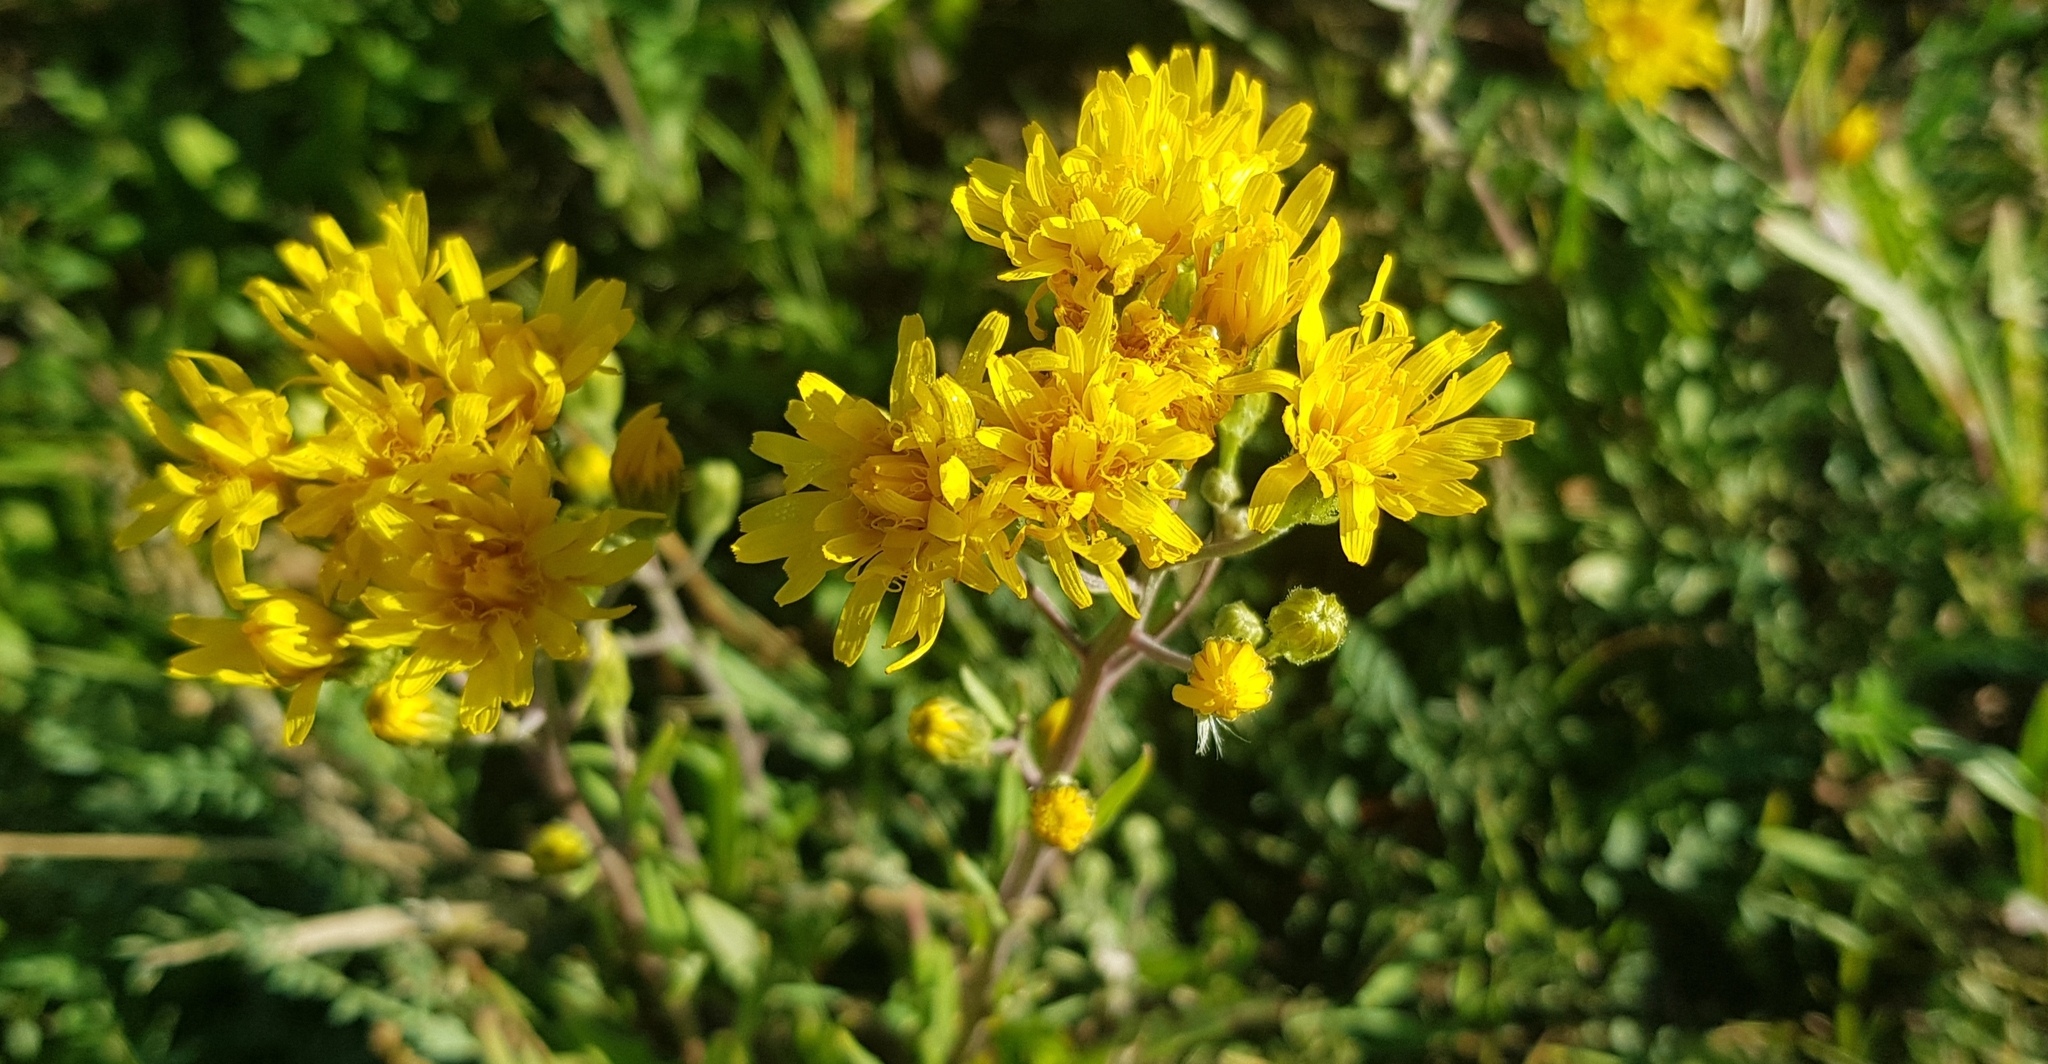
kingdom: Plantae
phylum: Tracheophyta
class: Magnoliopsida
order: Asterales
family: Asteraceae
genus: Hieracium
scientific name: Hieracium umbellatum
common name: Northern hawkweed
